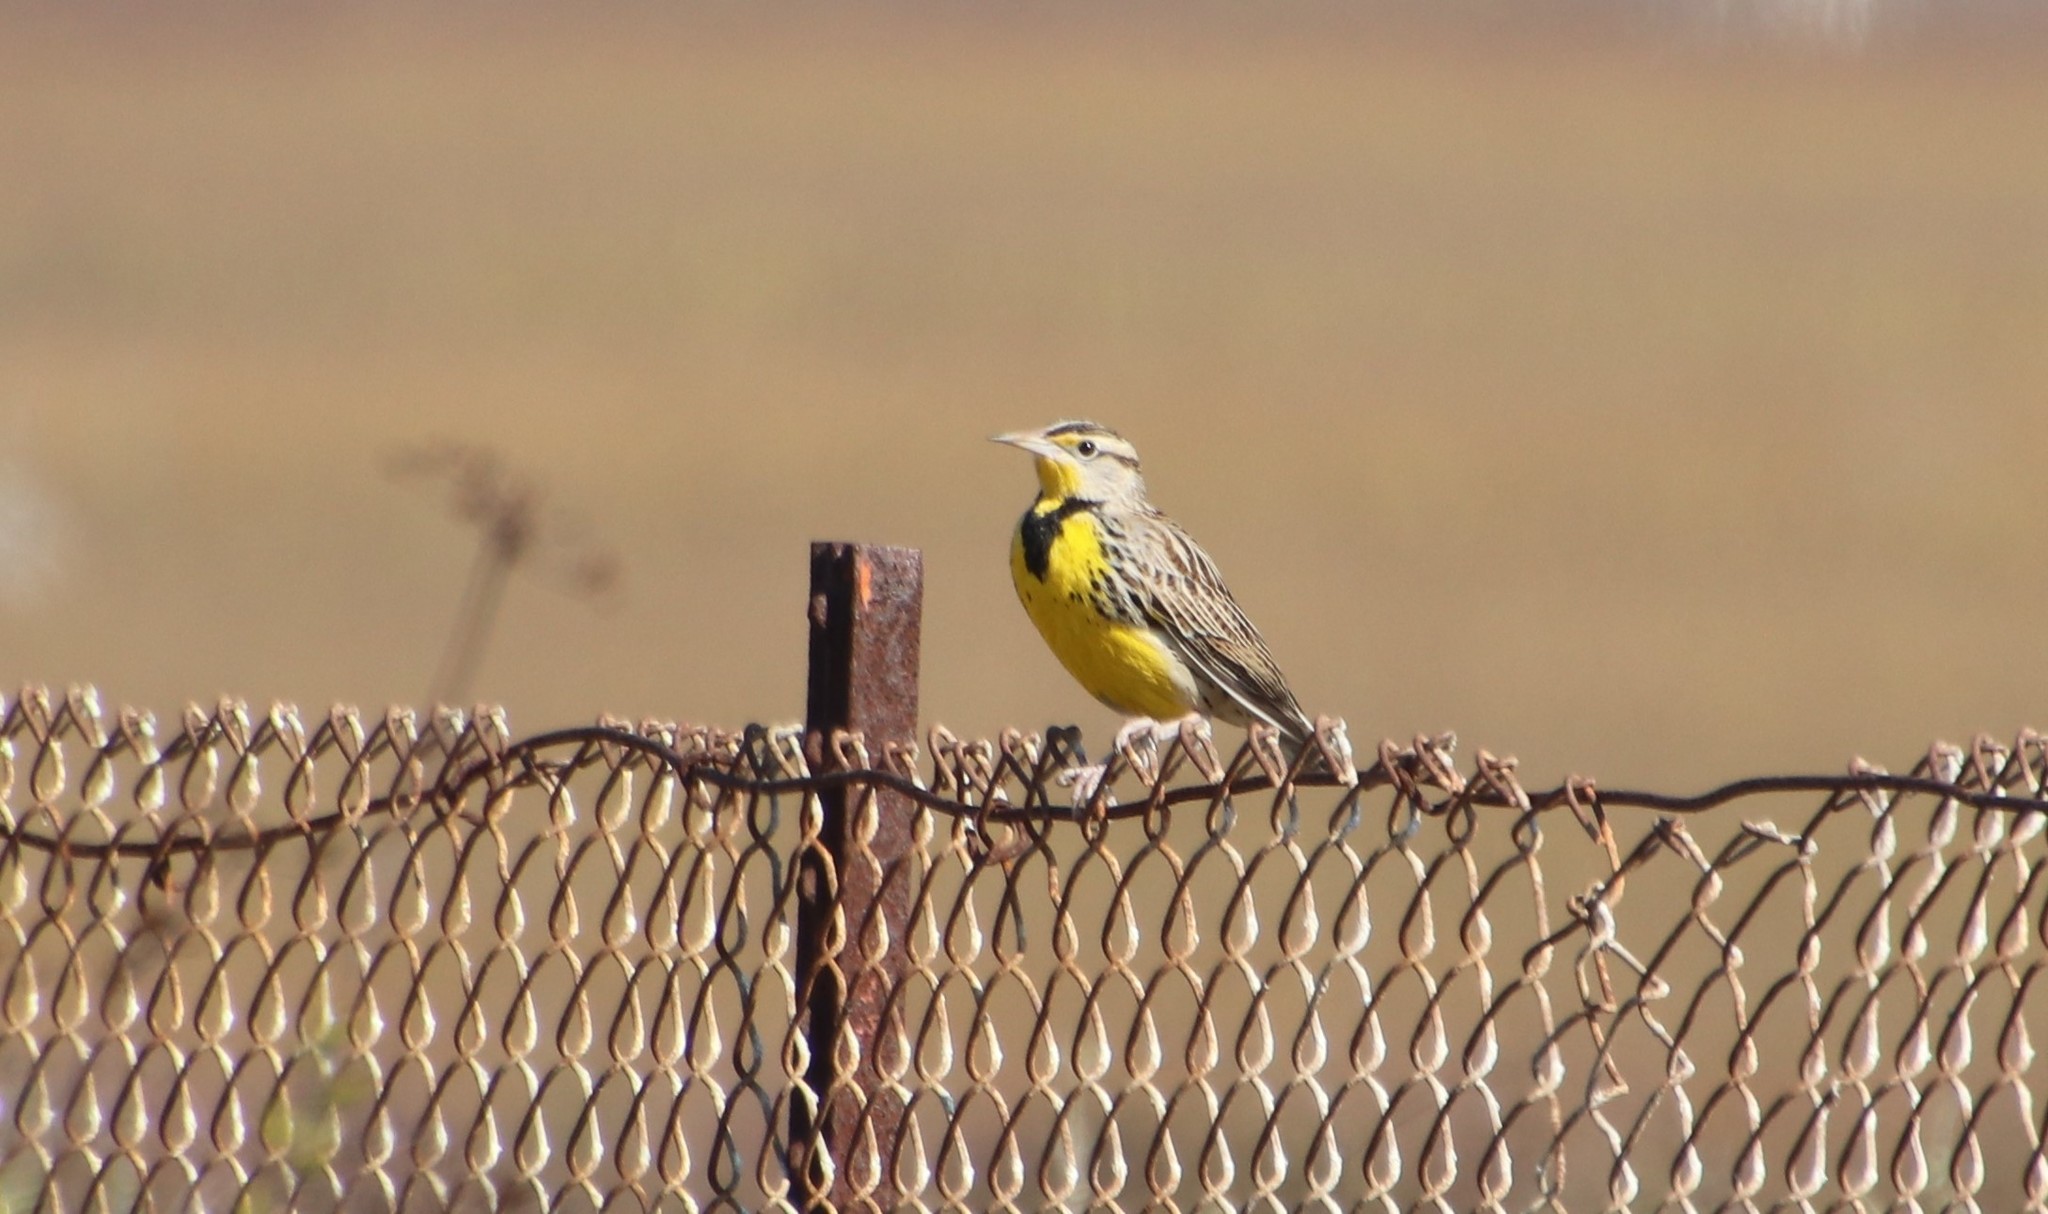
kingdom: Animalia
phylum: Chordata
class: Aves
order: Passeriformes
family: Icteridae
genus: Sturnella
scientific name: Sturnella neglecta
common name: Western meadowlark
